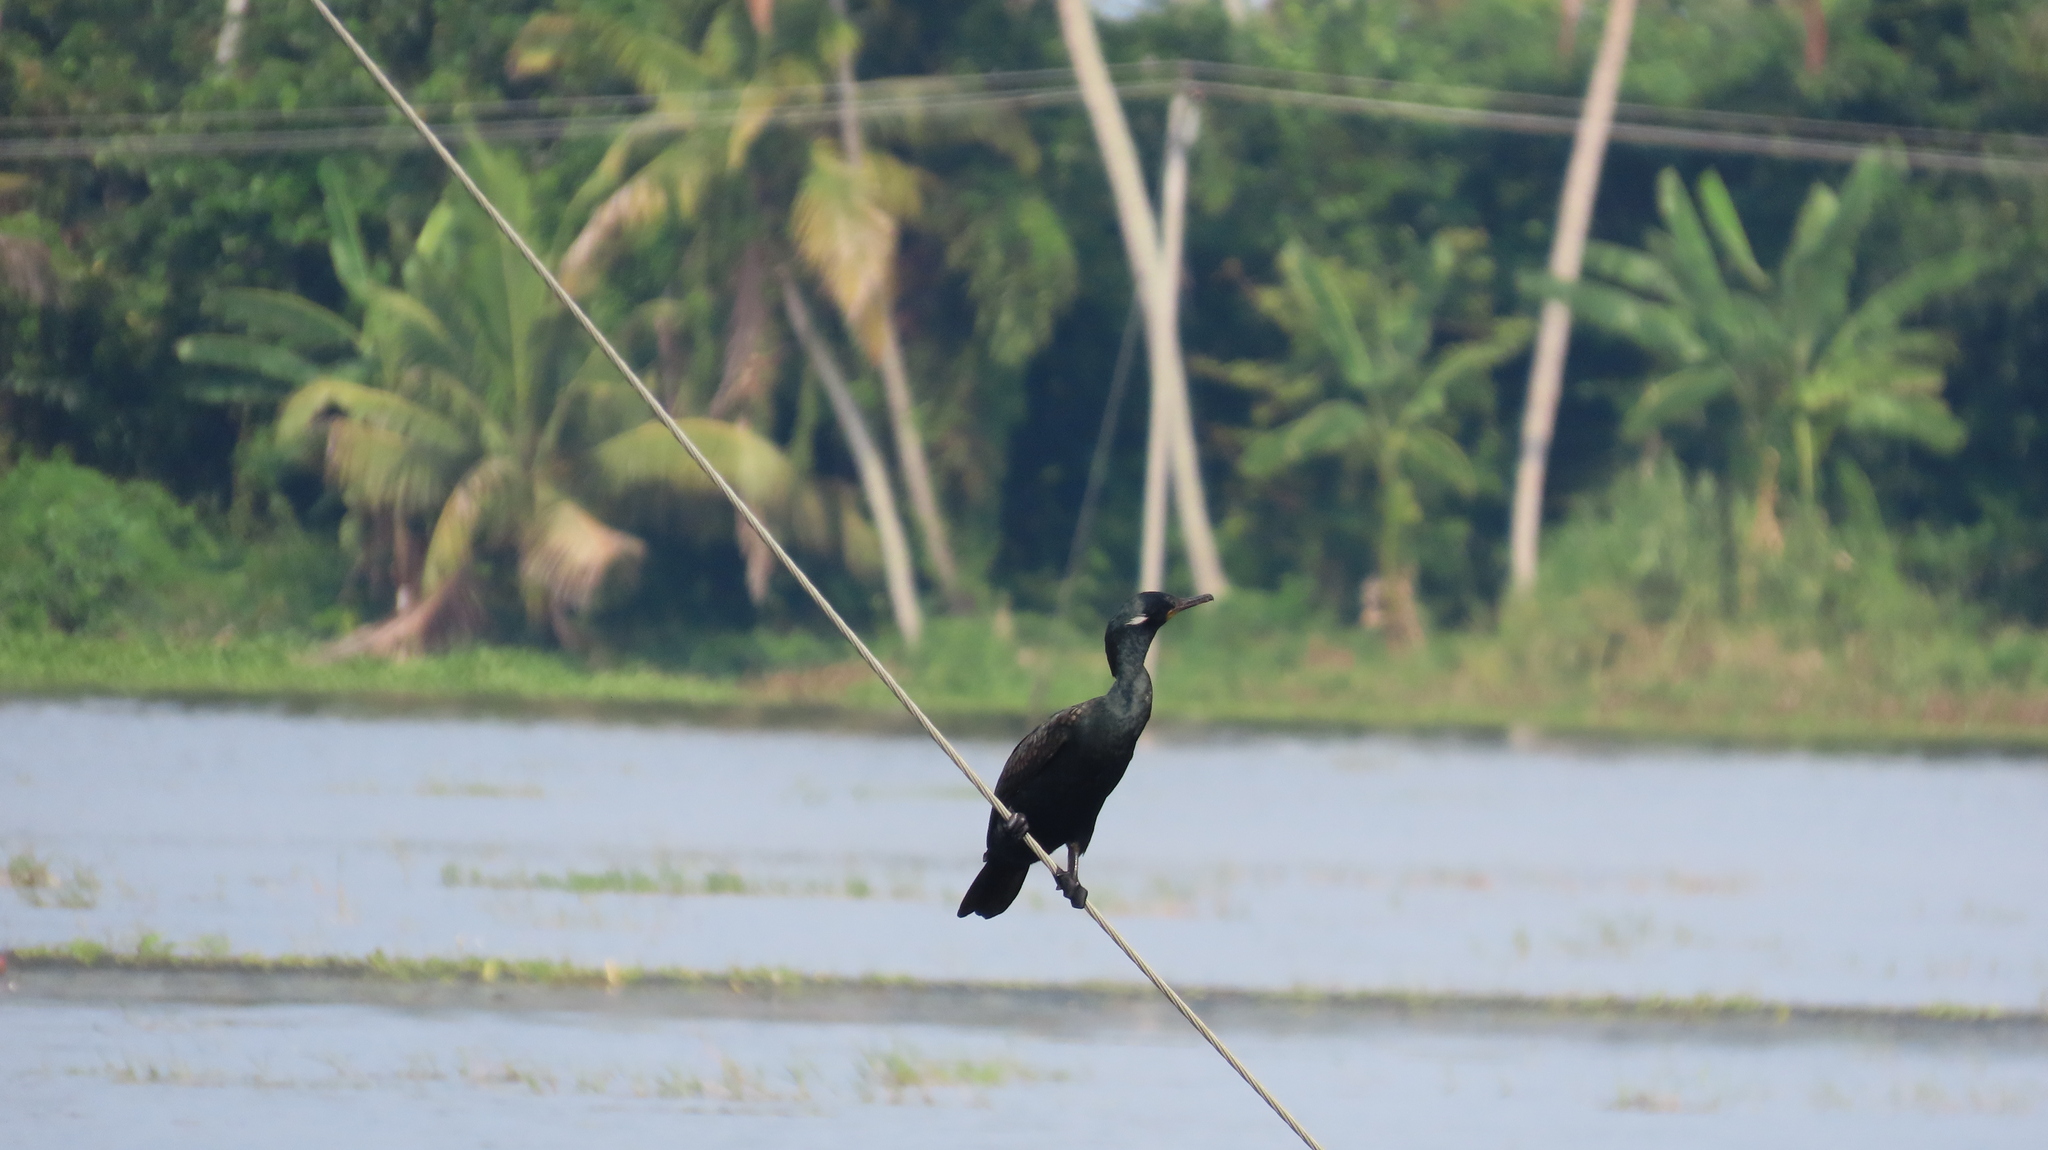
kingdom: Animalia
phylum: Chordata
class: Aves
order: Suliformes
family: Phalacrocoracidae
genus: Phalacrocorax
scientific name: Phalacrocorax fuscicollis
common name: Indian cormorant
